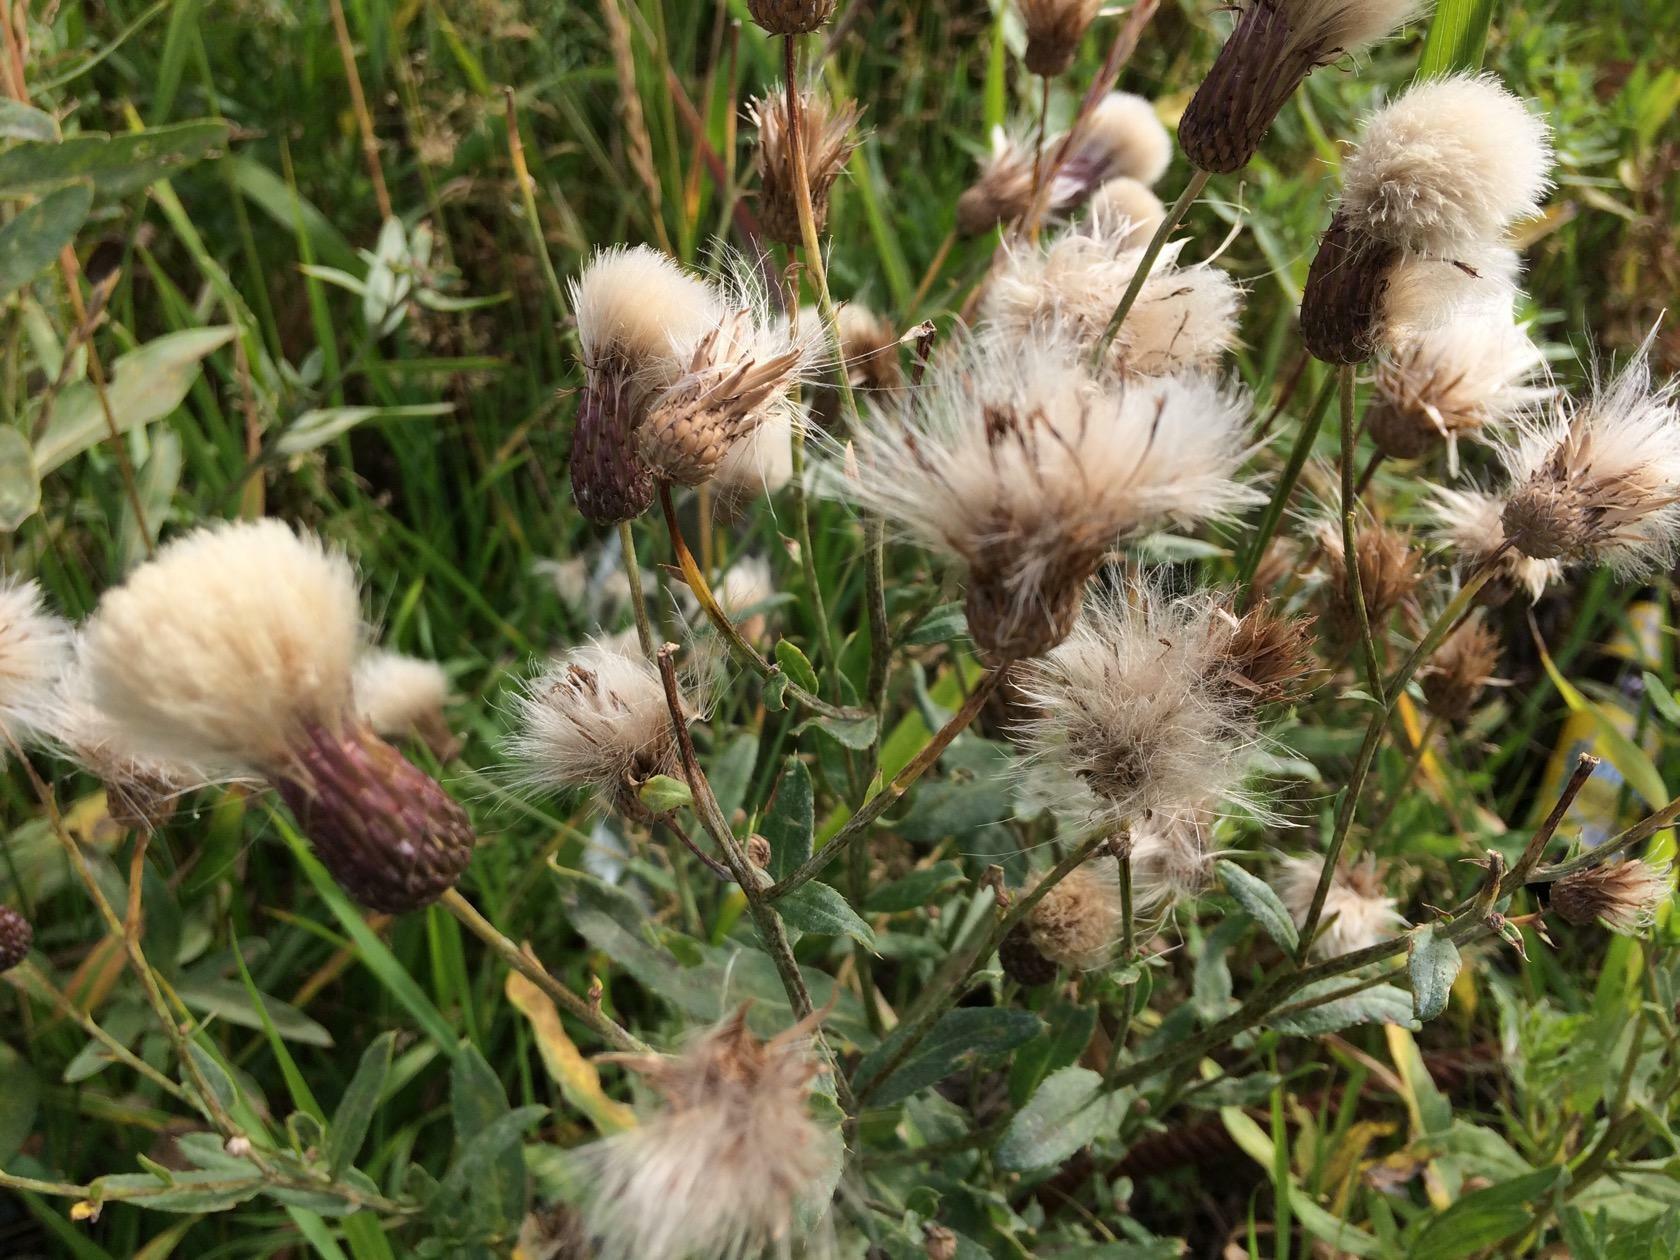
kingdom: Plantae
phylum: Tracheophyta
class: Magnoliopsida
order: Asterales
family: Asteraceae
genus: Cirsium
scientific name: Cirsium arvense
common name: Creeping thistle
